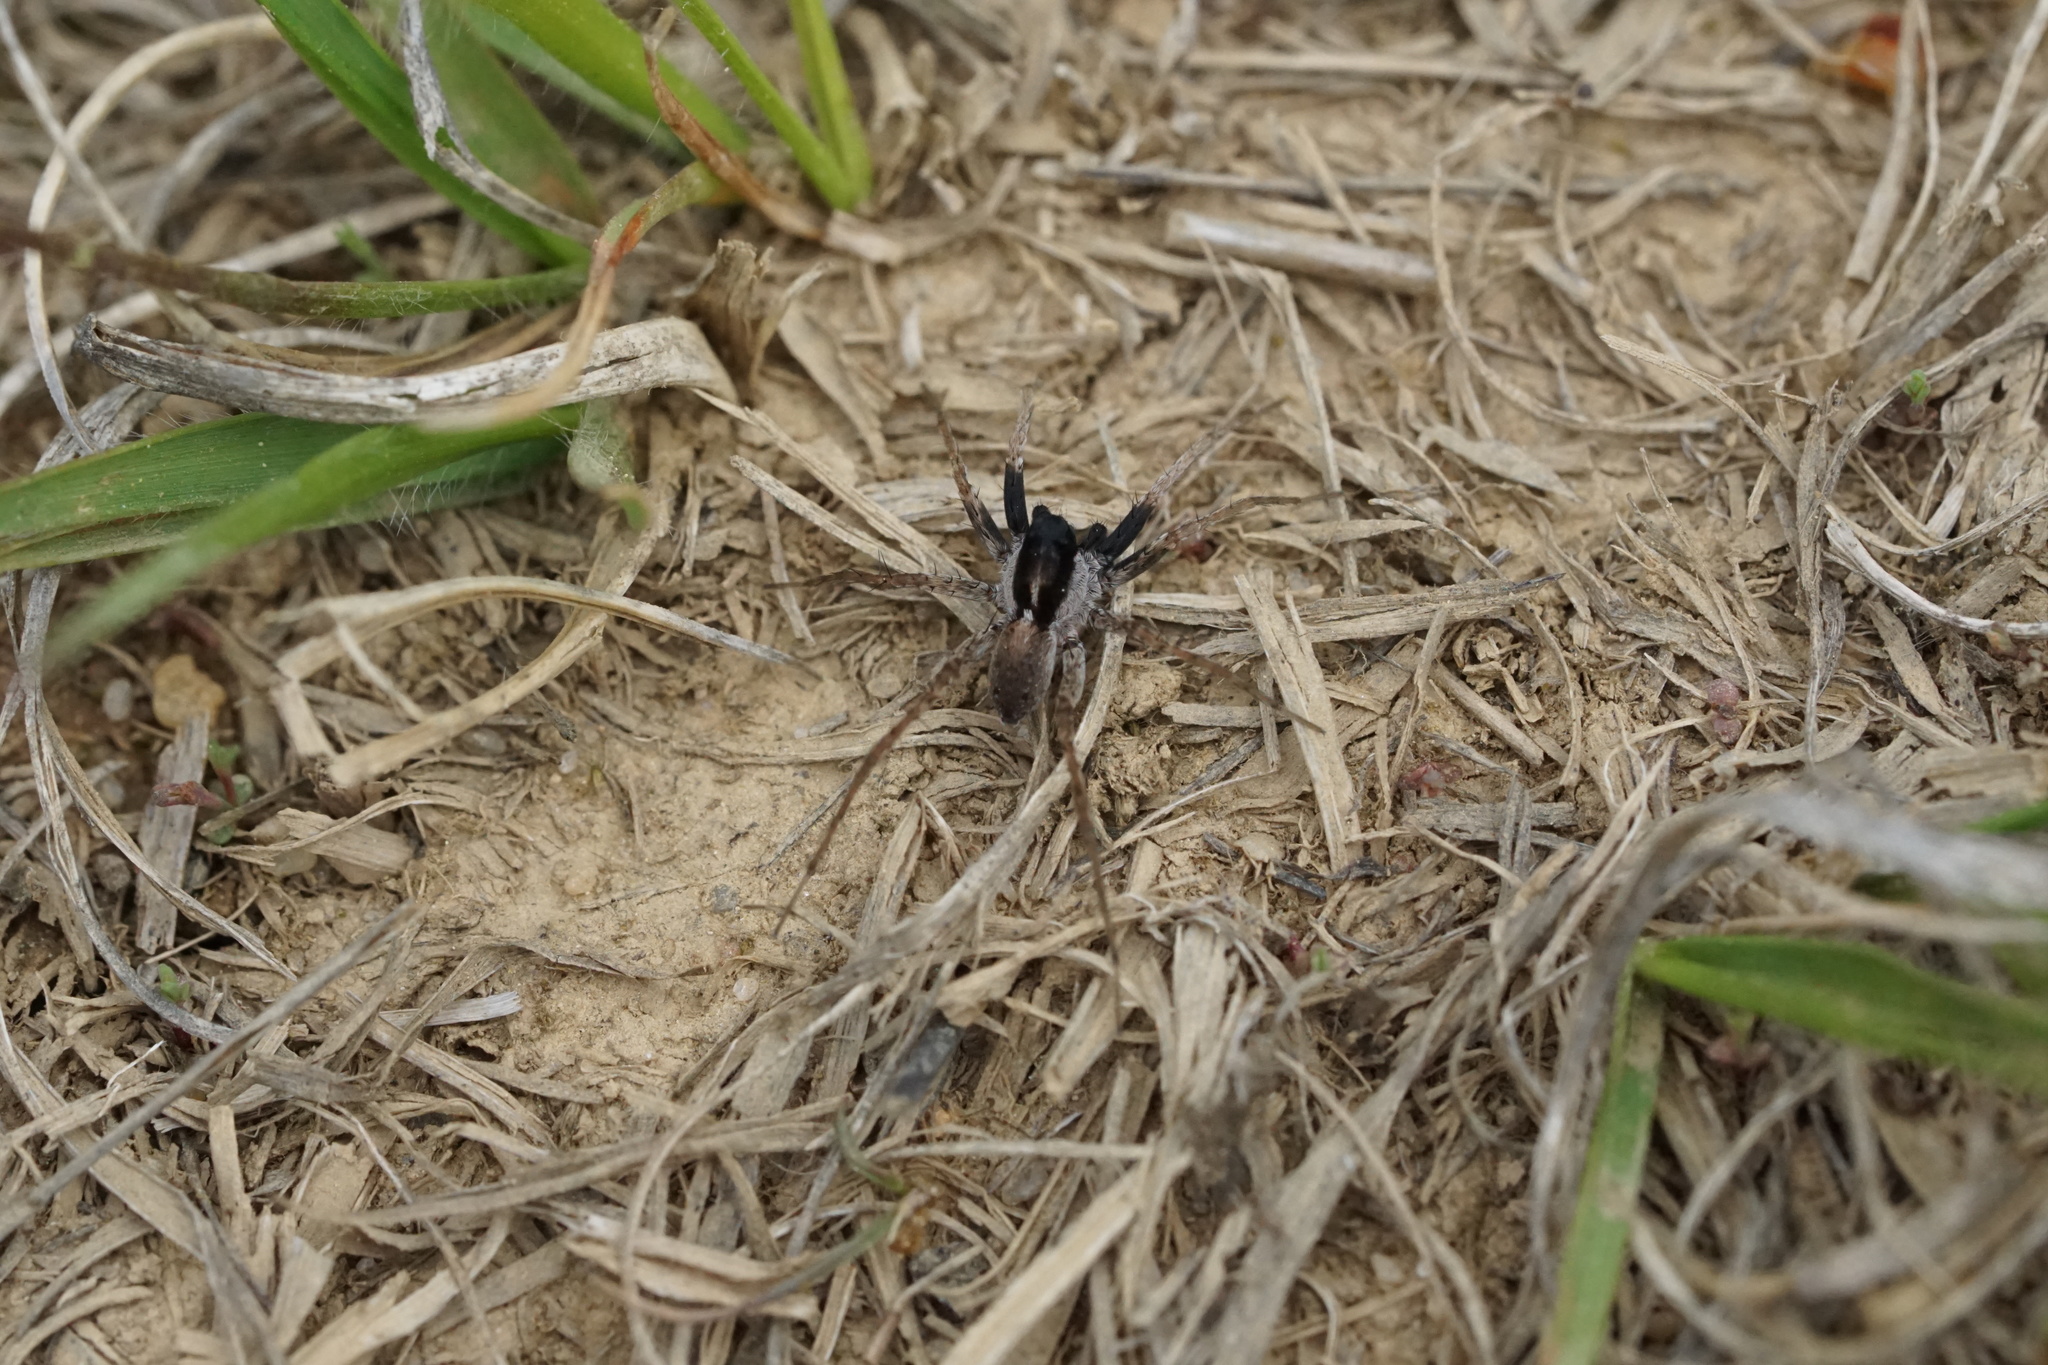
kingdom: Animalia
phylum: Arthropoda
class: Arachnida
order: Araneae
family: Lycosidae
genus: Pardosa
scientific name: Pardosa saxatilis
